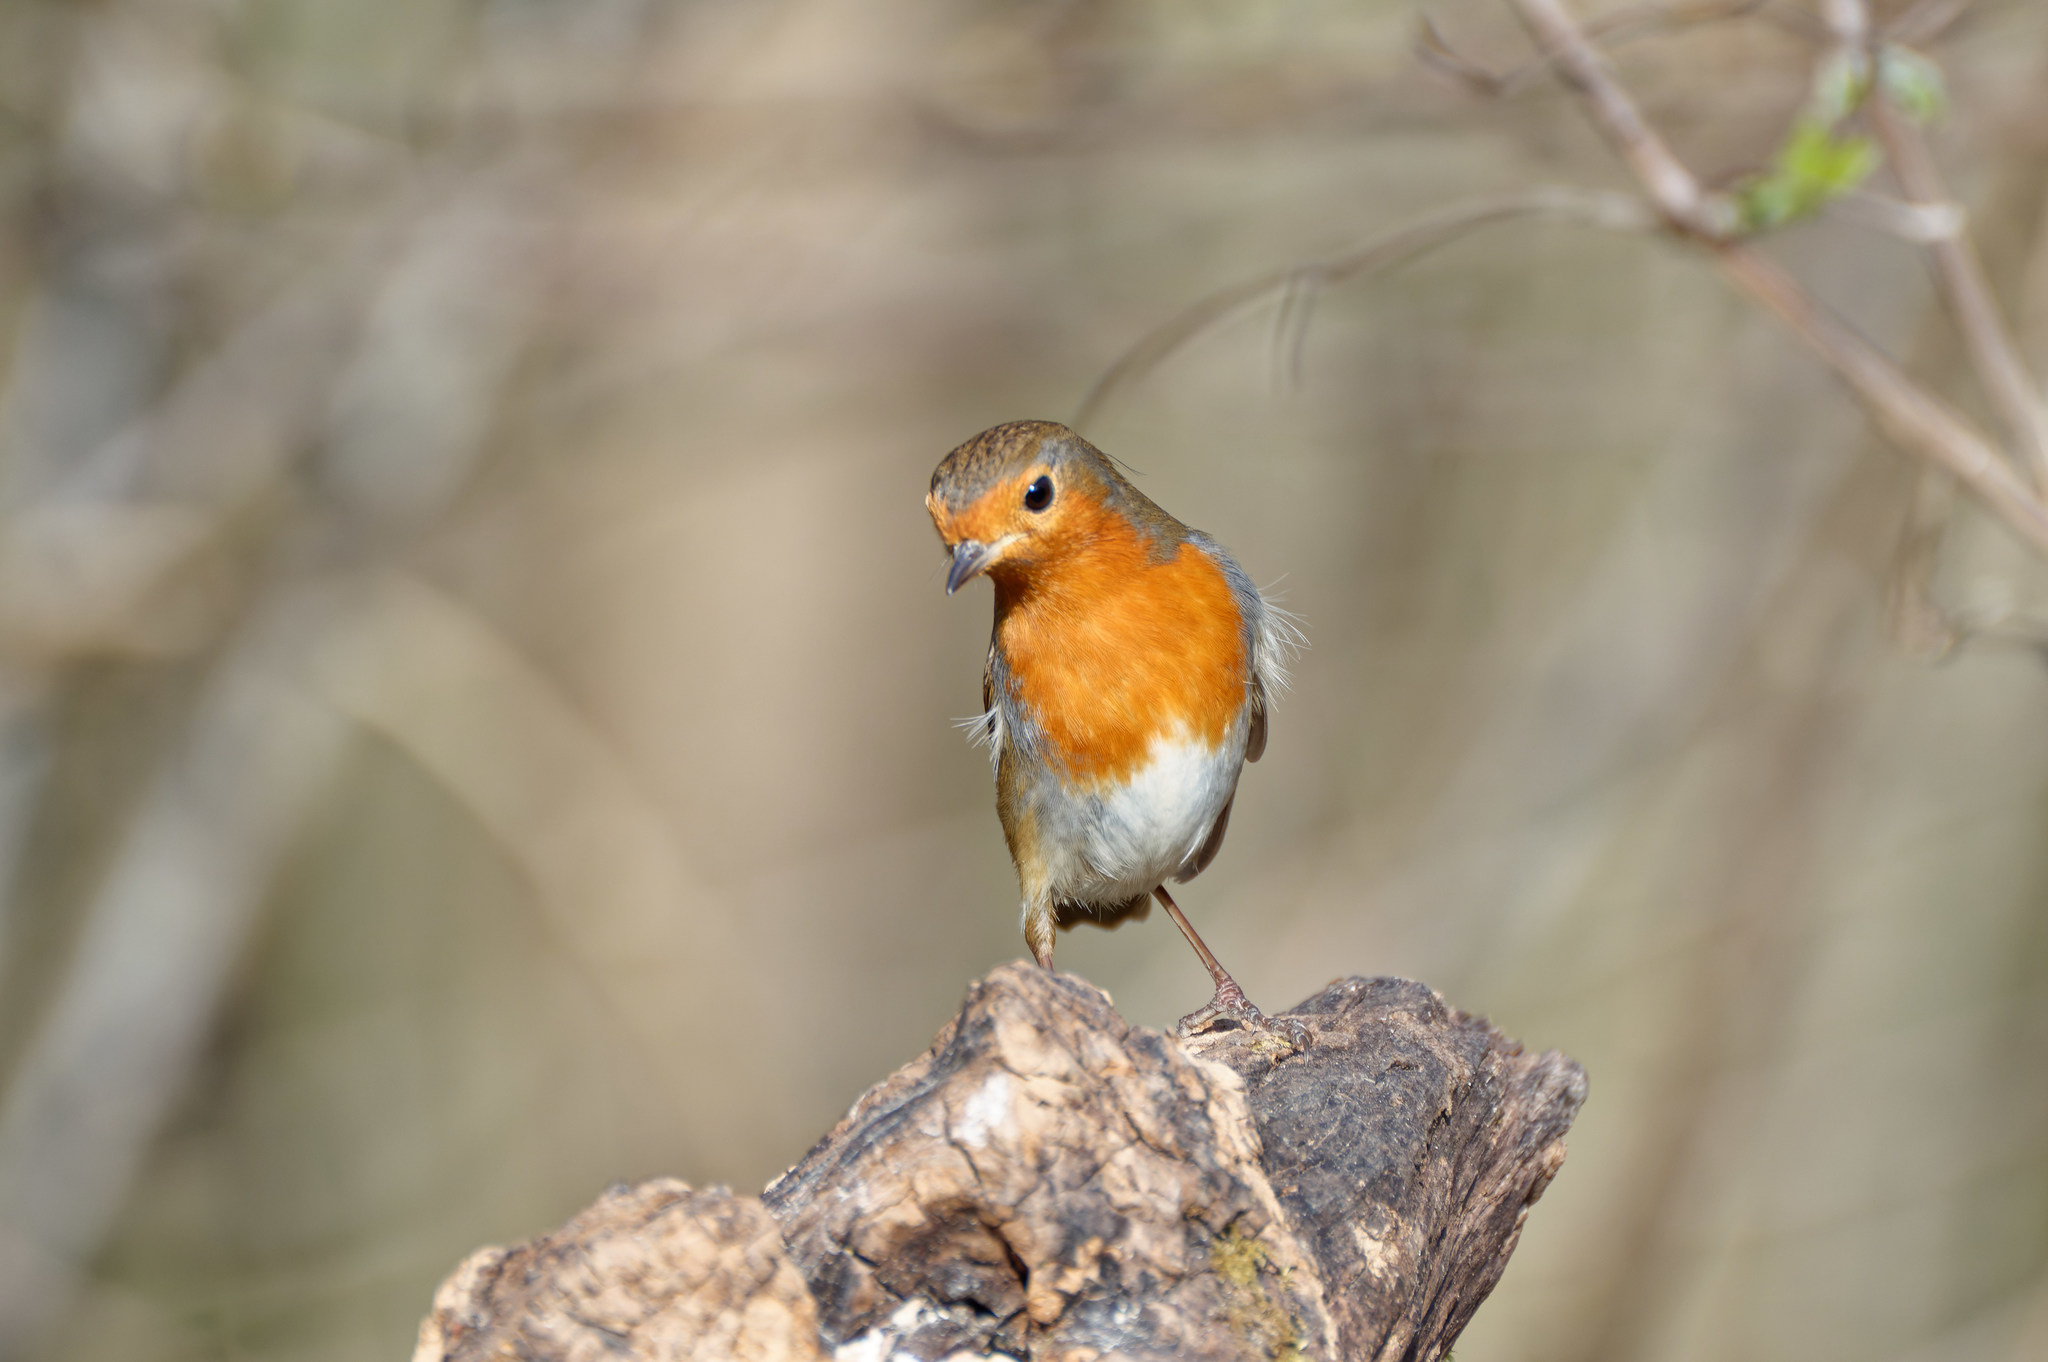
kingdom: Animalia
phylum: Chordata
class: Aves
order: Passeriformes
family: Muscicapidae
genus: Erithacus
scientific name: Erithacus rubecula
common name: European robin
